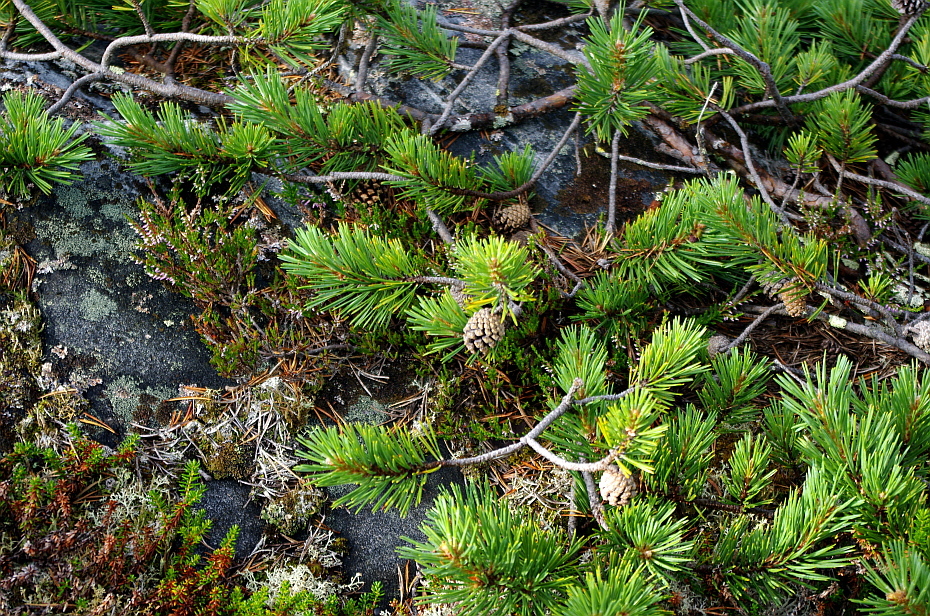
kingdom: Plantae
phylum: Tracheophyta
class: Pinopsida
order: Pinales
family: Pinaceae
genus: Pinus
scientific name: Pinus sylvestris
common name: Scots pine
